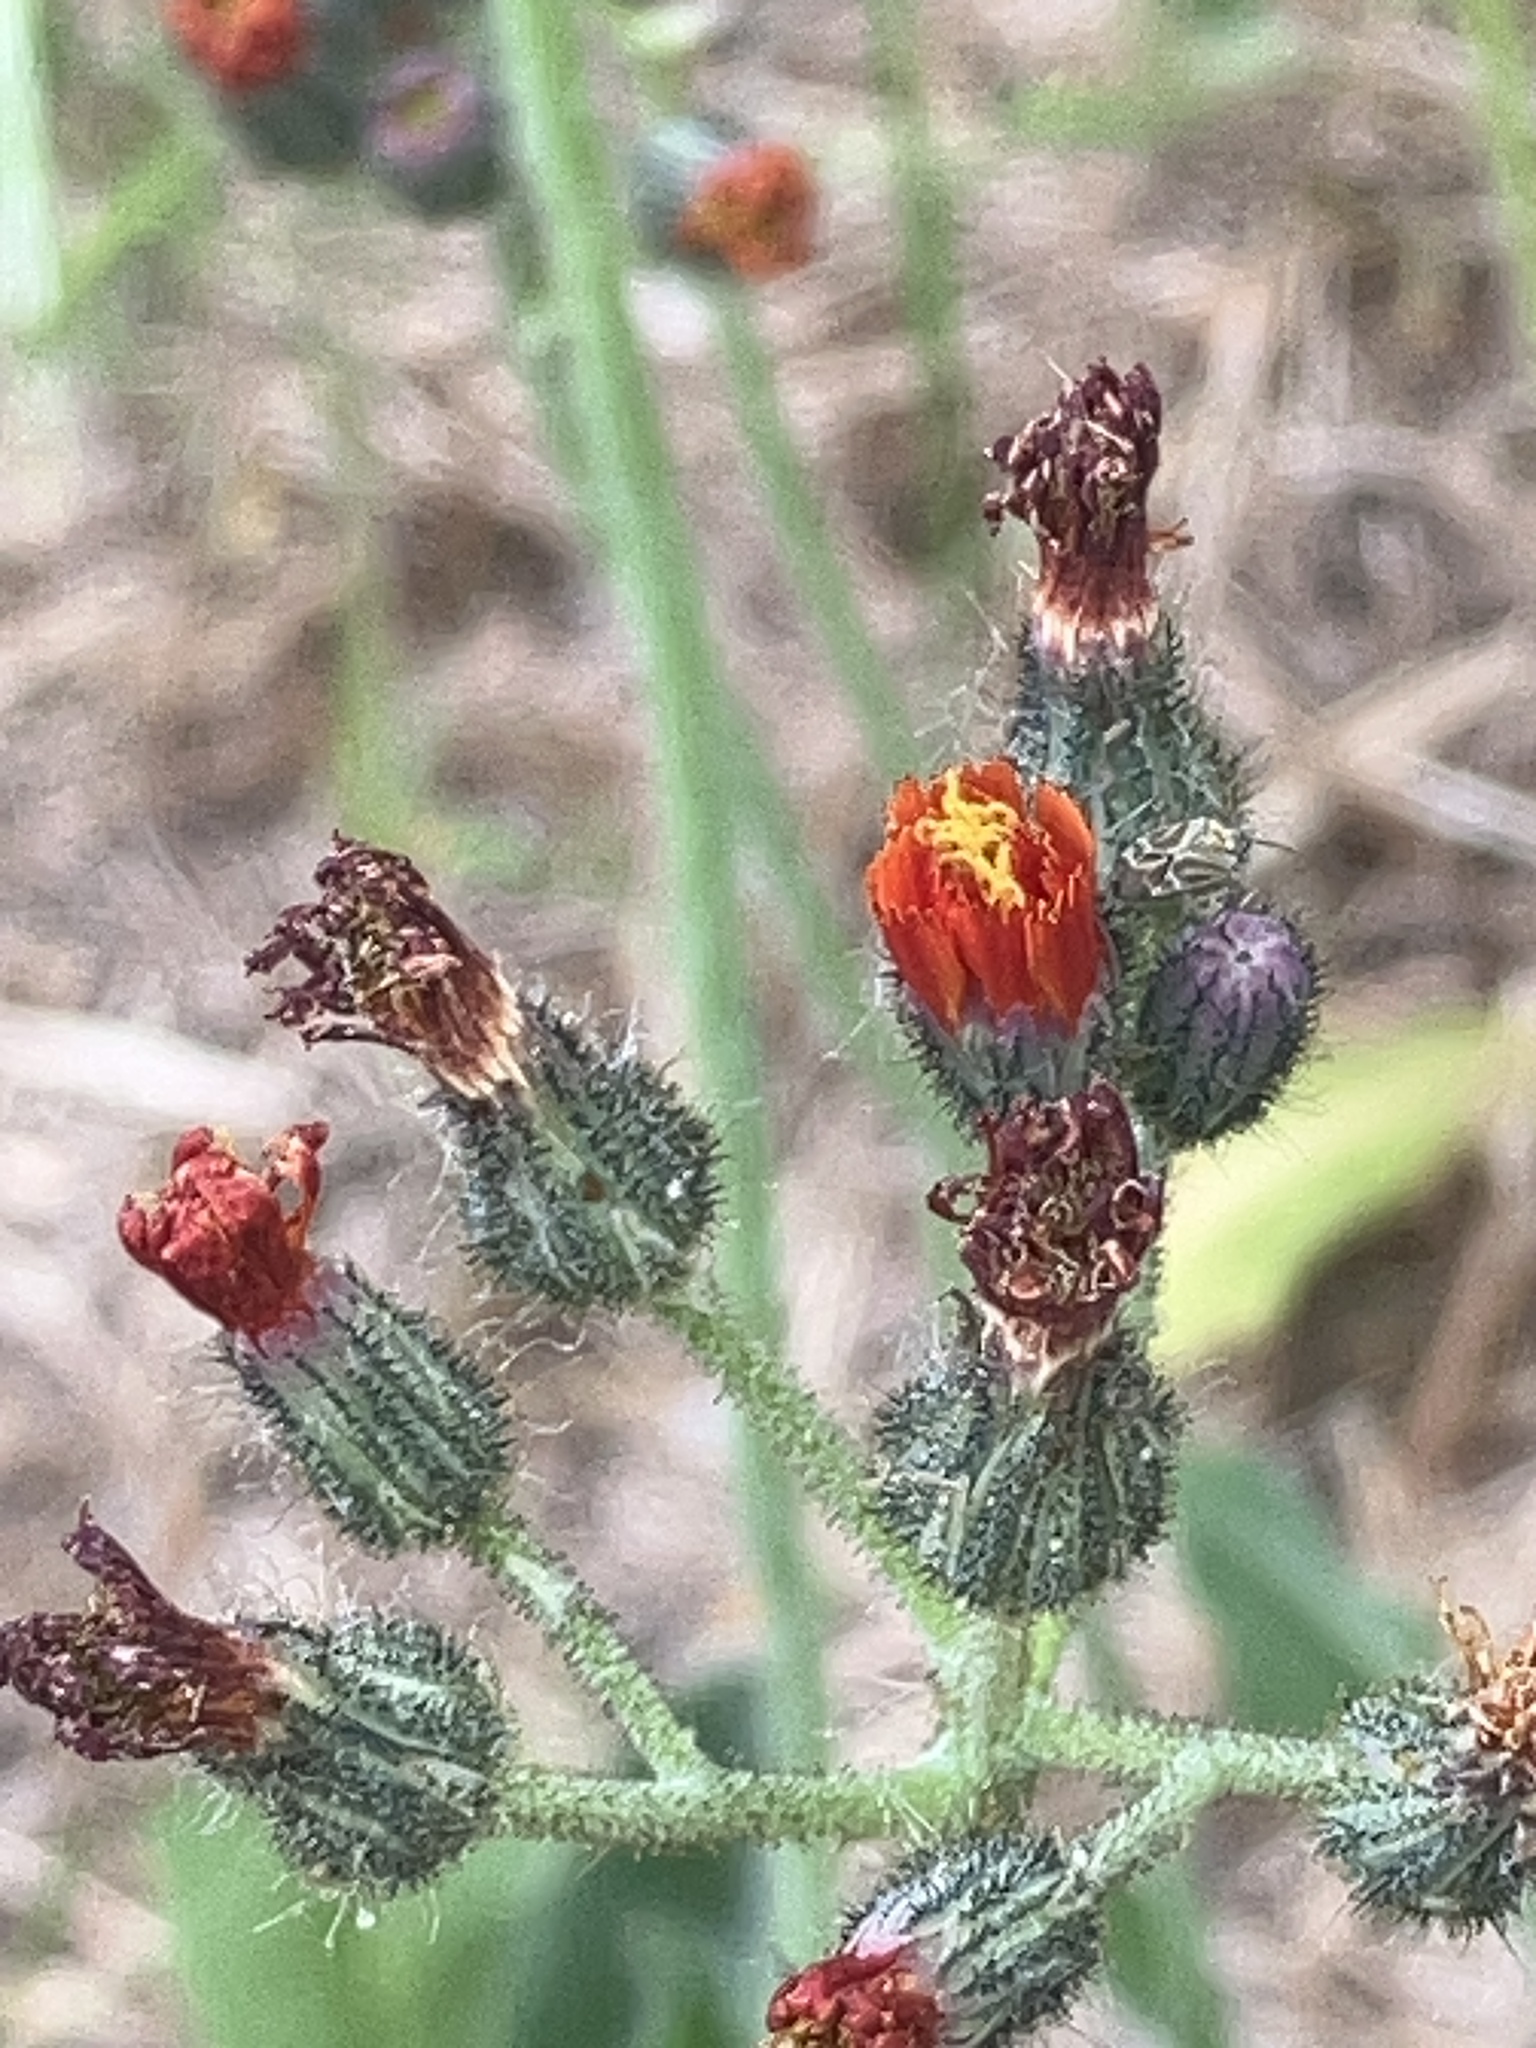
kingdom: Plantae
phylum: Tracheophyta
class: Magnoliopsida
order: Asterales
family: Asteraceae
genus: Pilosella
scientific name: Pilosella aurantiaca
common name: Fox-and-cubs
